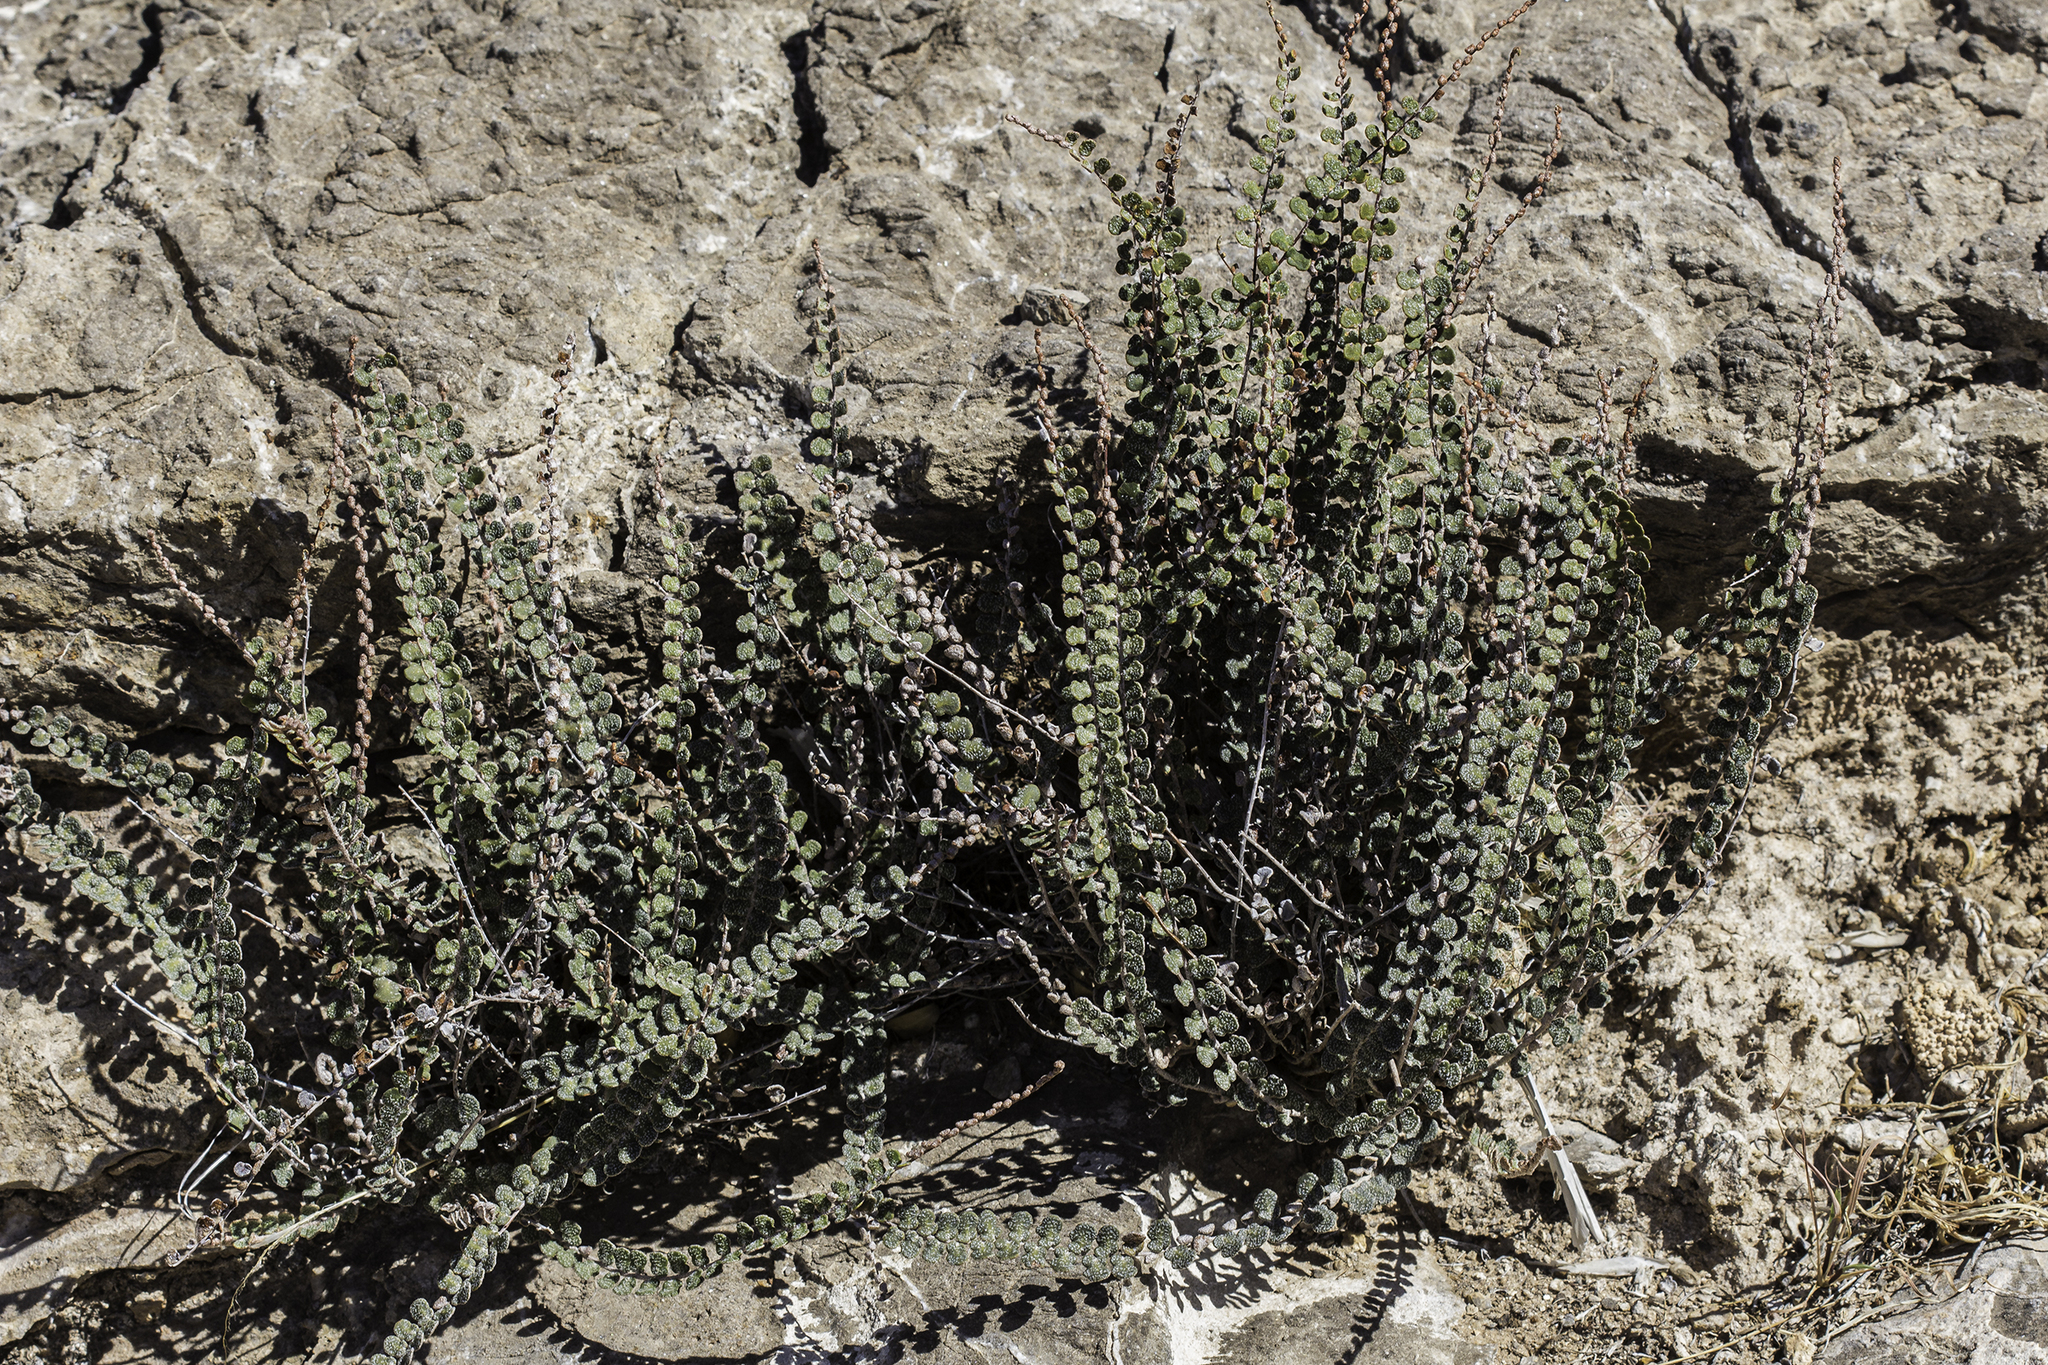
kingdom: Plantae
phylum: Tracheophyta
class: Polypodiopsida
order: Polypodiales
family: Pteridaceae
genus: Astrolepis
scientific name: Astrolepis cochisensis
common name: Scaly cloak fern
